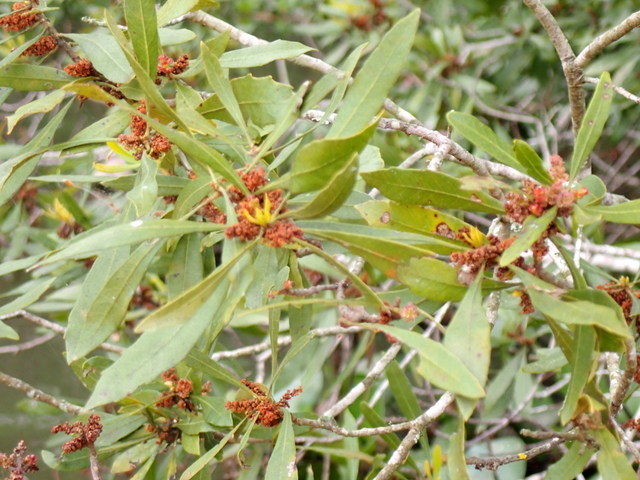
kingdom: Plantae
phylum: Tracheophyta
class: Magnoliopsida
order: Fagales
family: Myricaceae
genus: Morella
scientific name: Morella cerifera
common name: Wax myrtle
